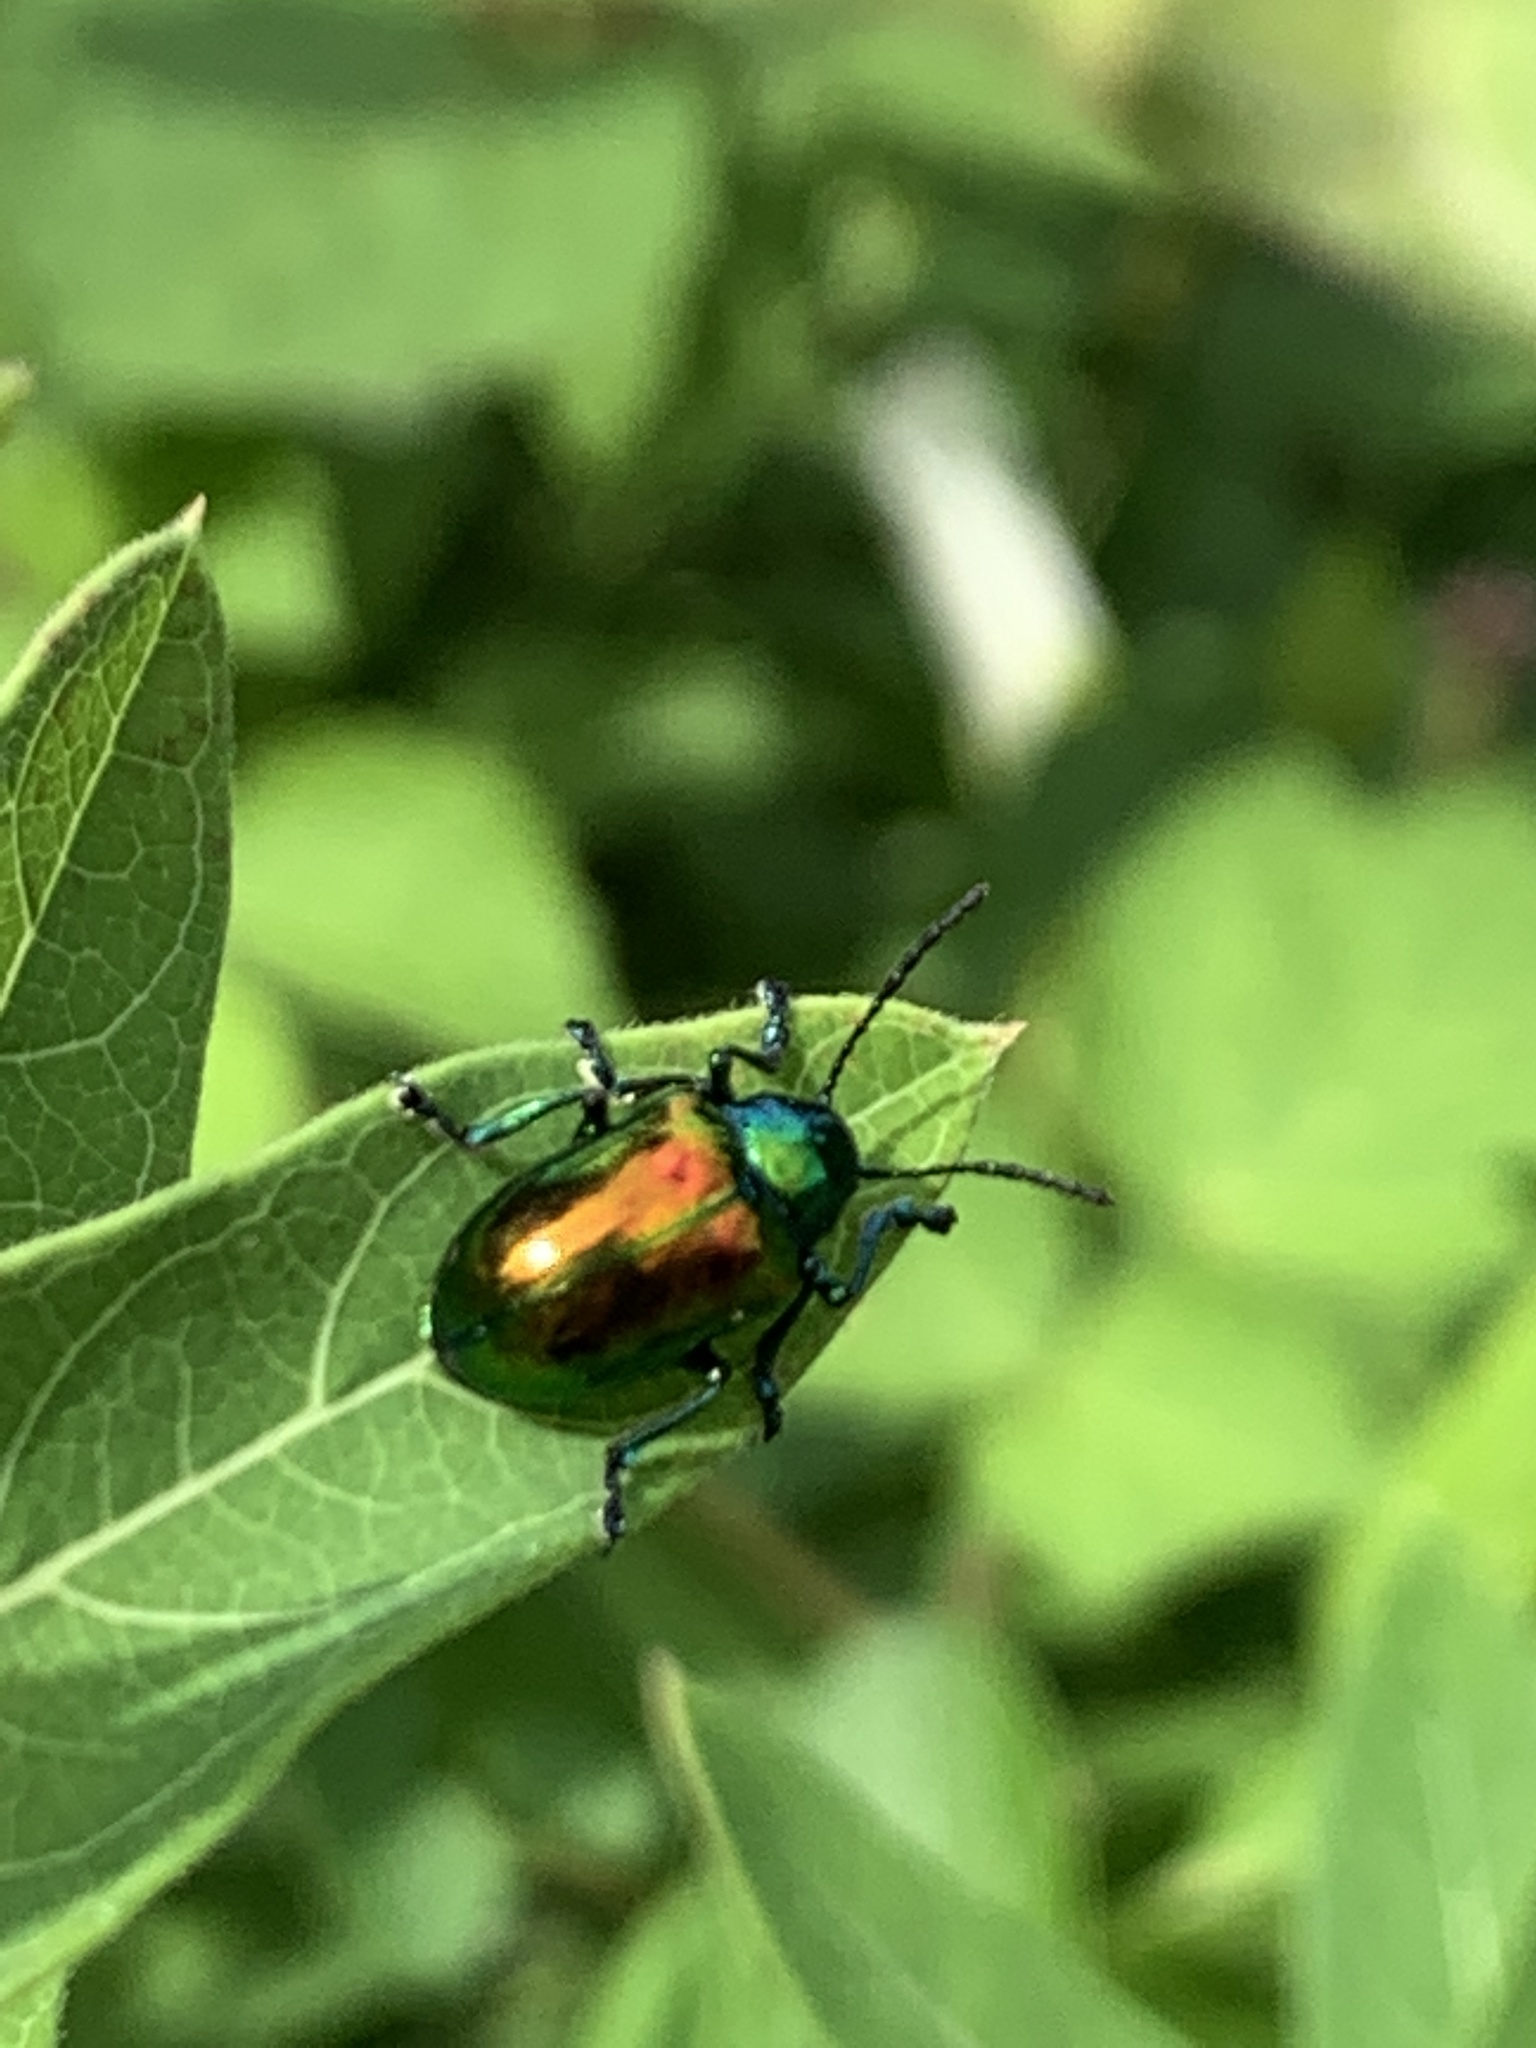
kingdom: Animalia
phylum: Arthropoda
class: Insecta
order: Coleoptera
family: Chrysomelidae
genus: Chrysochus
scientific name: Chrysochus auratus
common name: Dogbane leaf beetle
